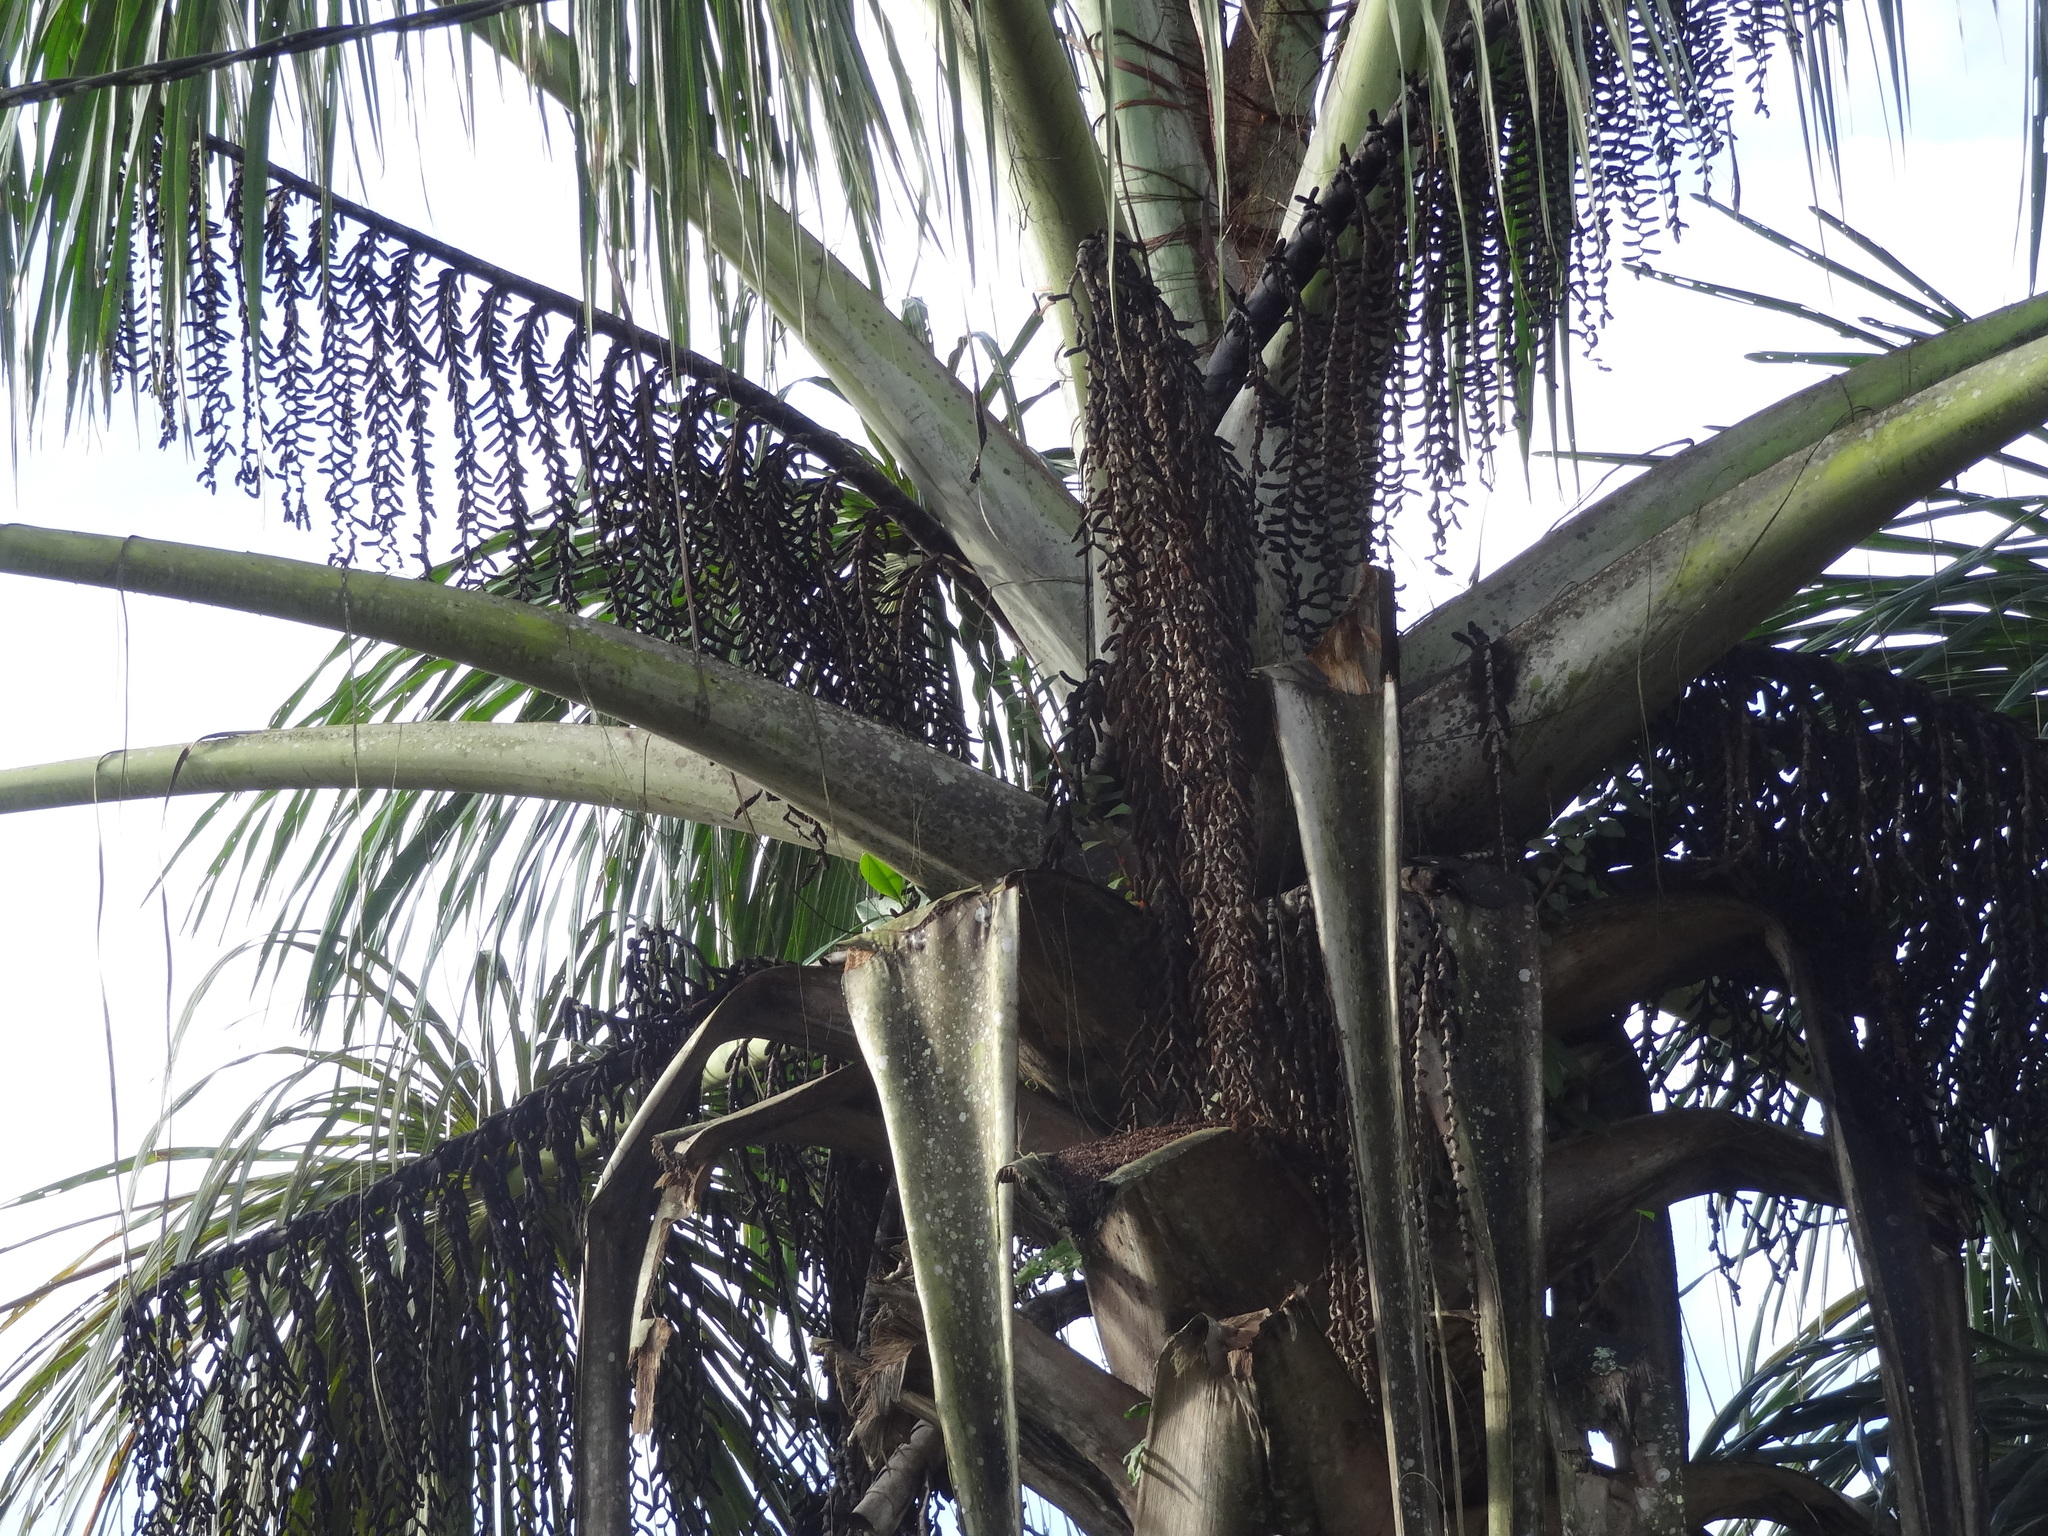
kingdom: Plantae
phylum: Tracheophyta
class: Liliopsida
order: Arecales
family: Arecaceae
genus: Mauritia
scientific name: Mauritia flexuosa
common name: Tree-of-life
